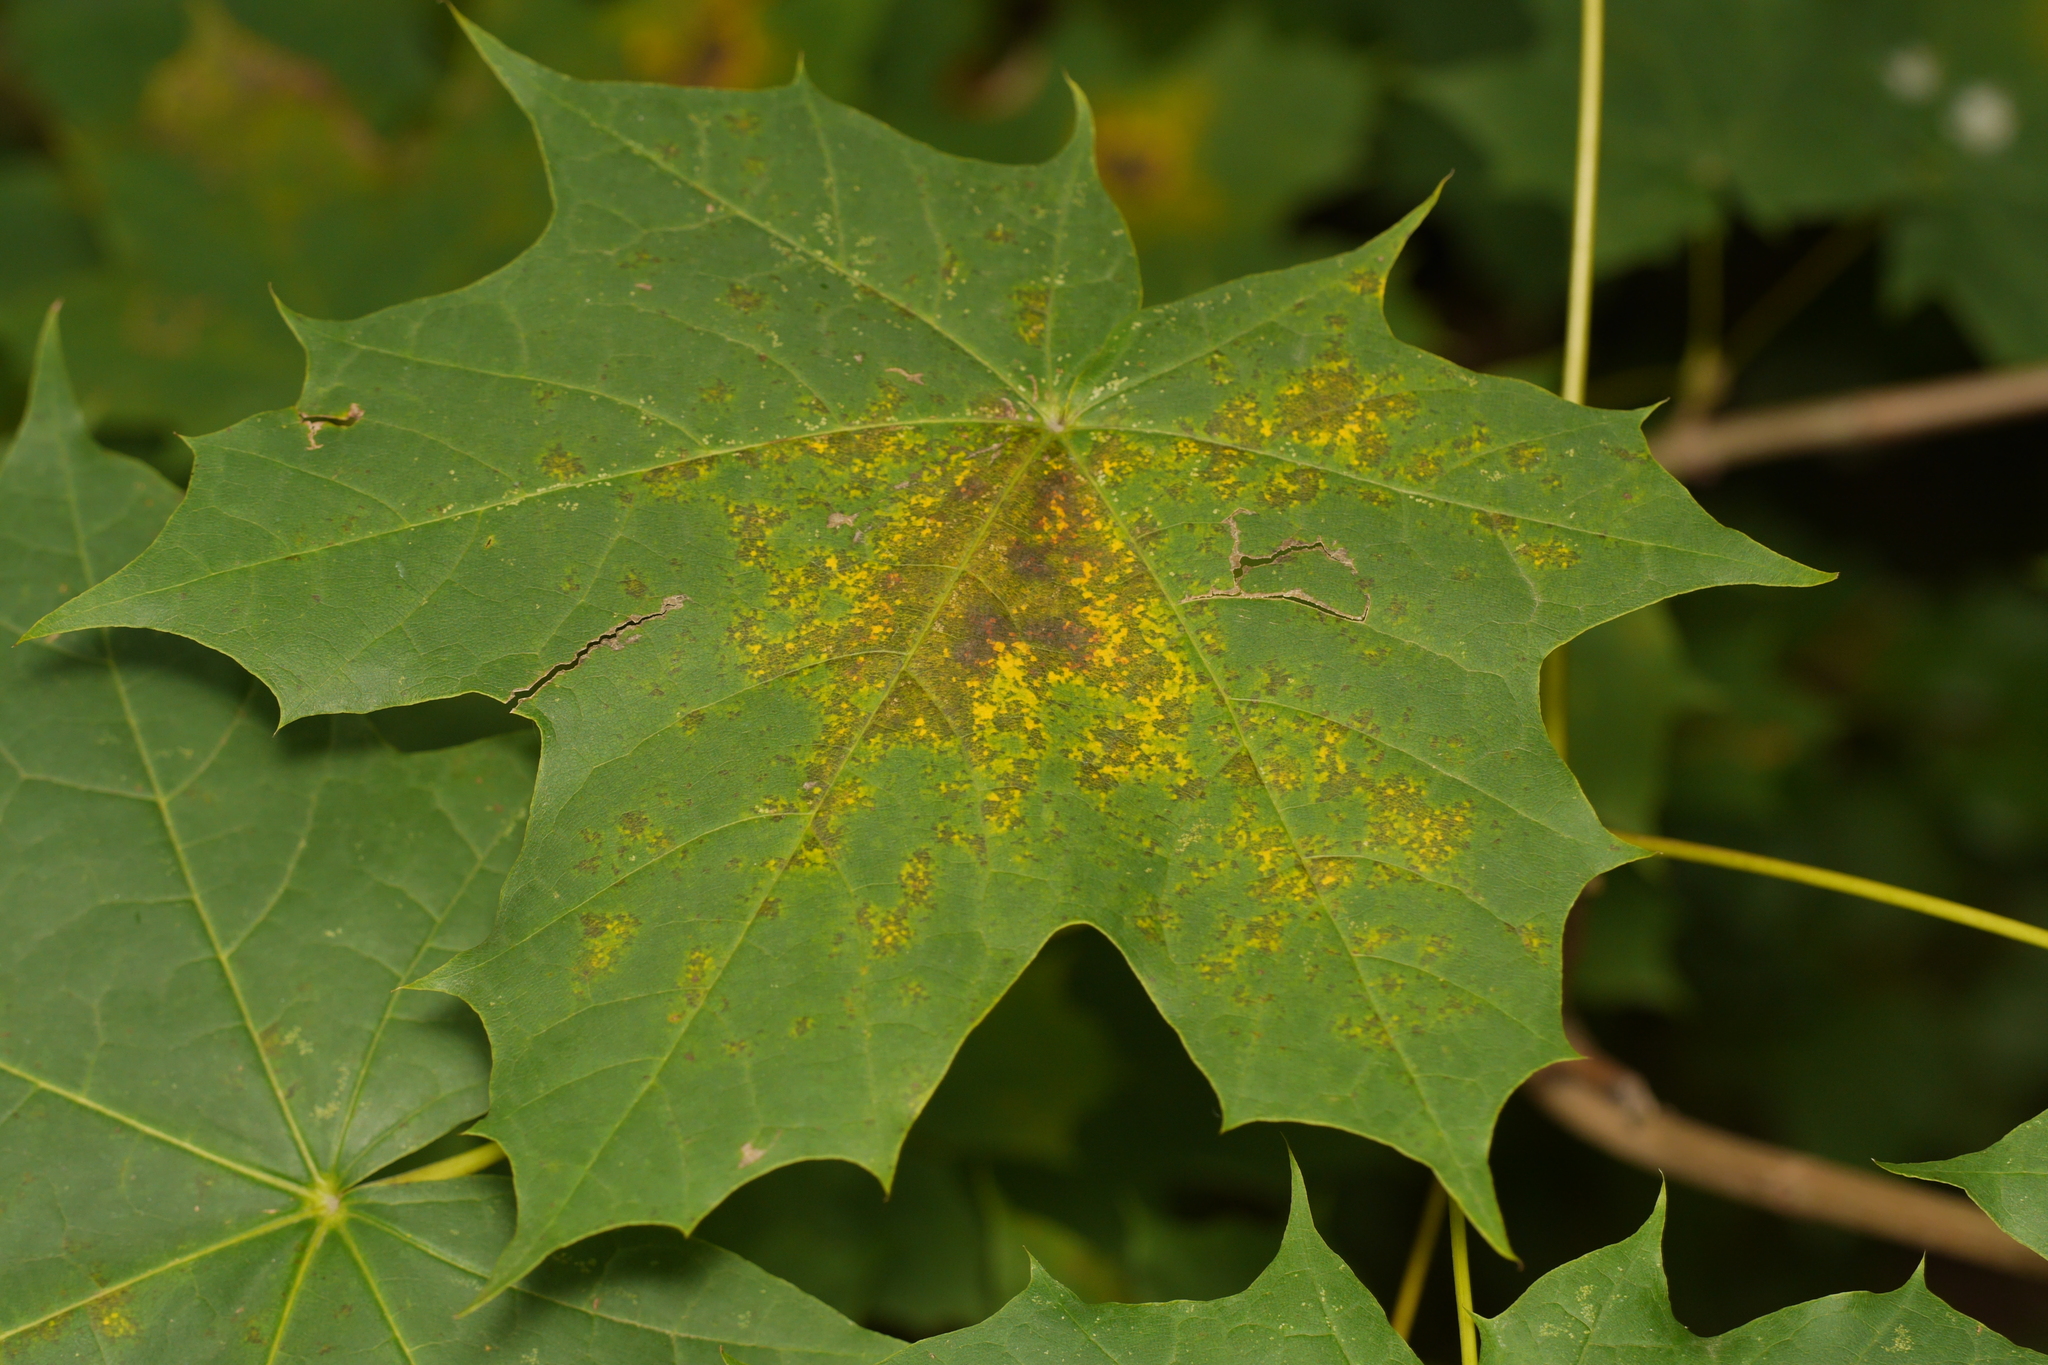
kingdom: Fungi
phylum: Ascomycota
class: Leotiomycetes
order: Rhytismatales
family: Rhytismataceae
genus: Rhytisma
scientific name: Rhytisma acerinum
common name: European tar spot
